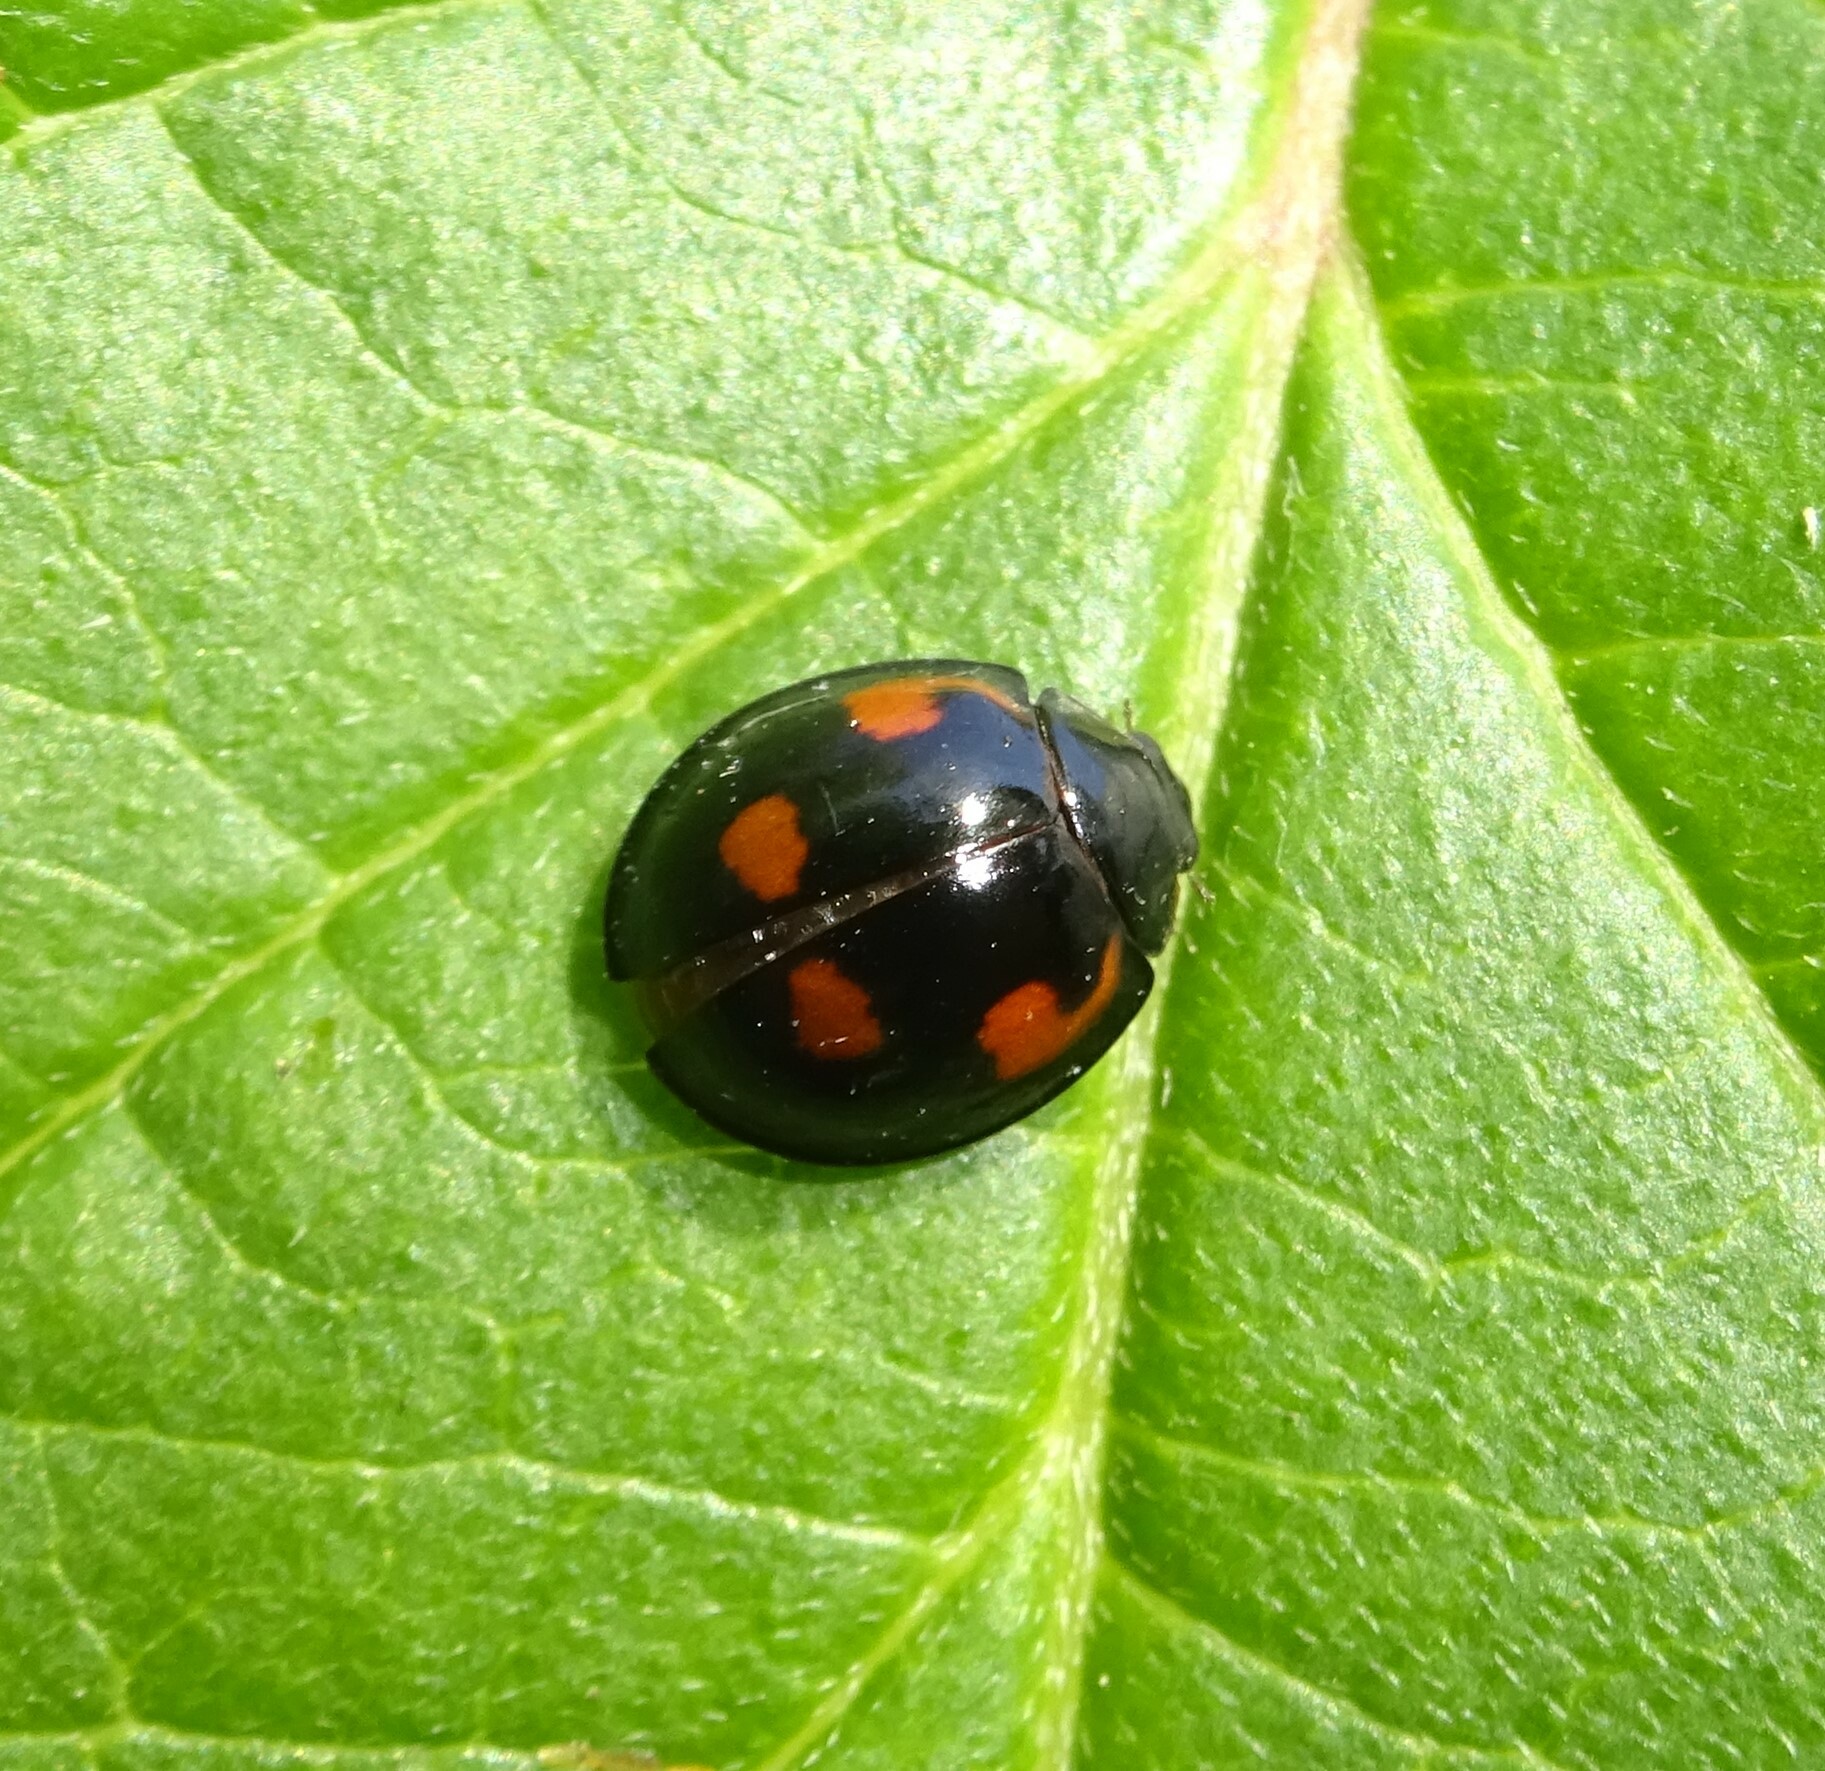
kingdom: Animalia
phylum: Arthropoda
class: Insecta
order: Coleoptera
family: Coccinellidae
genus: Brumus
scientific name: Brumus quadripustulatus
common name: Ladybird beetle
